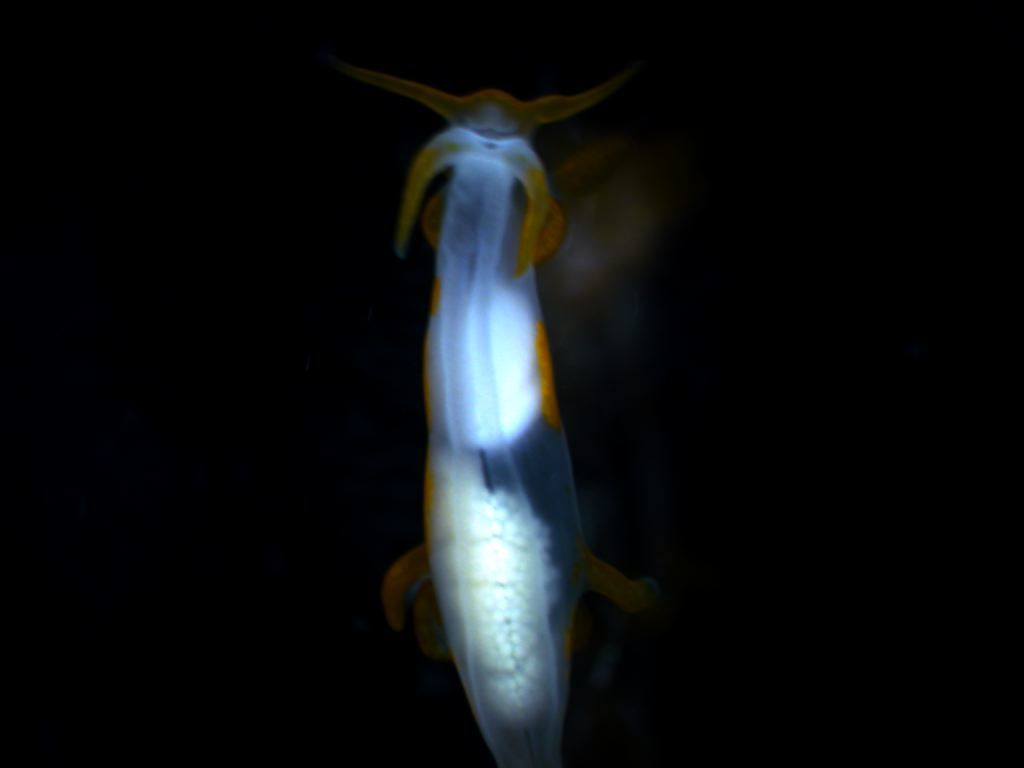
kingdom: Animalia
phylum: Mollusca
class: Gastropoda
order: Nudibranchia
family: Goniodorididae
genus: Trapania
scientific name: Trapania maculata
